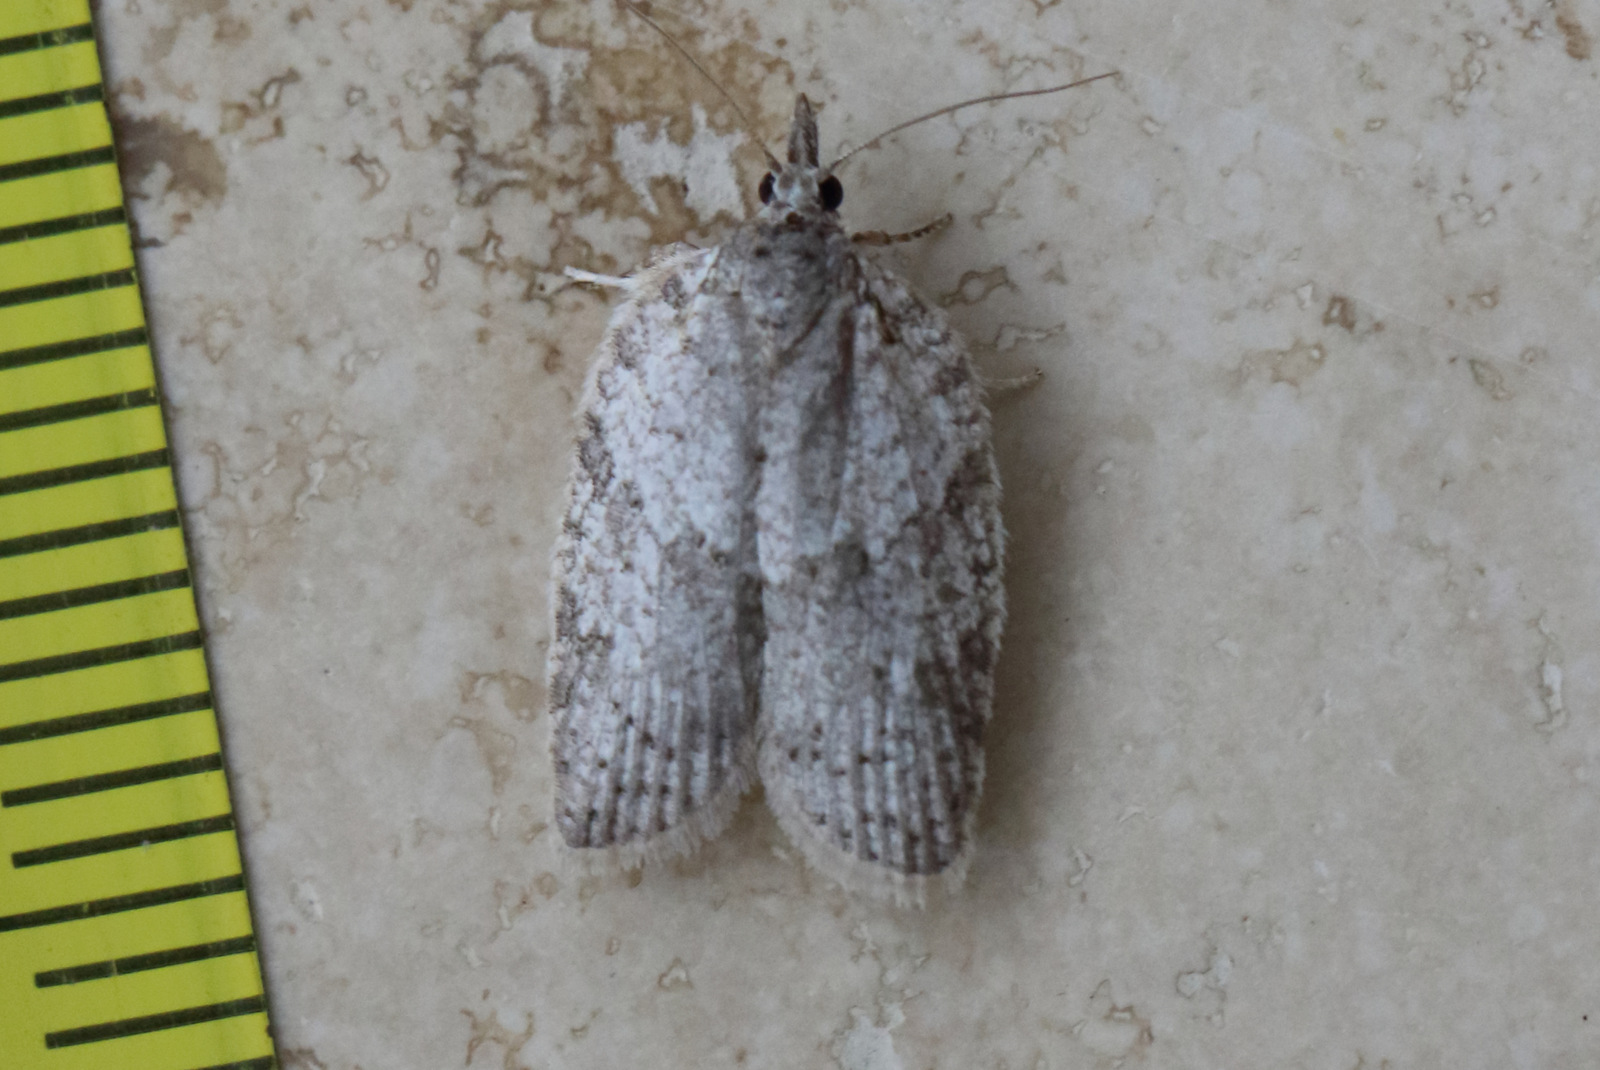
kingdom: Animalia
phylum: Arthropoda
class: Insecta
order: Lepidoptera
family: Tortricidae
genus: Isotenes
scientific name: Isotenes miserana
